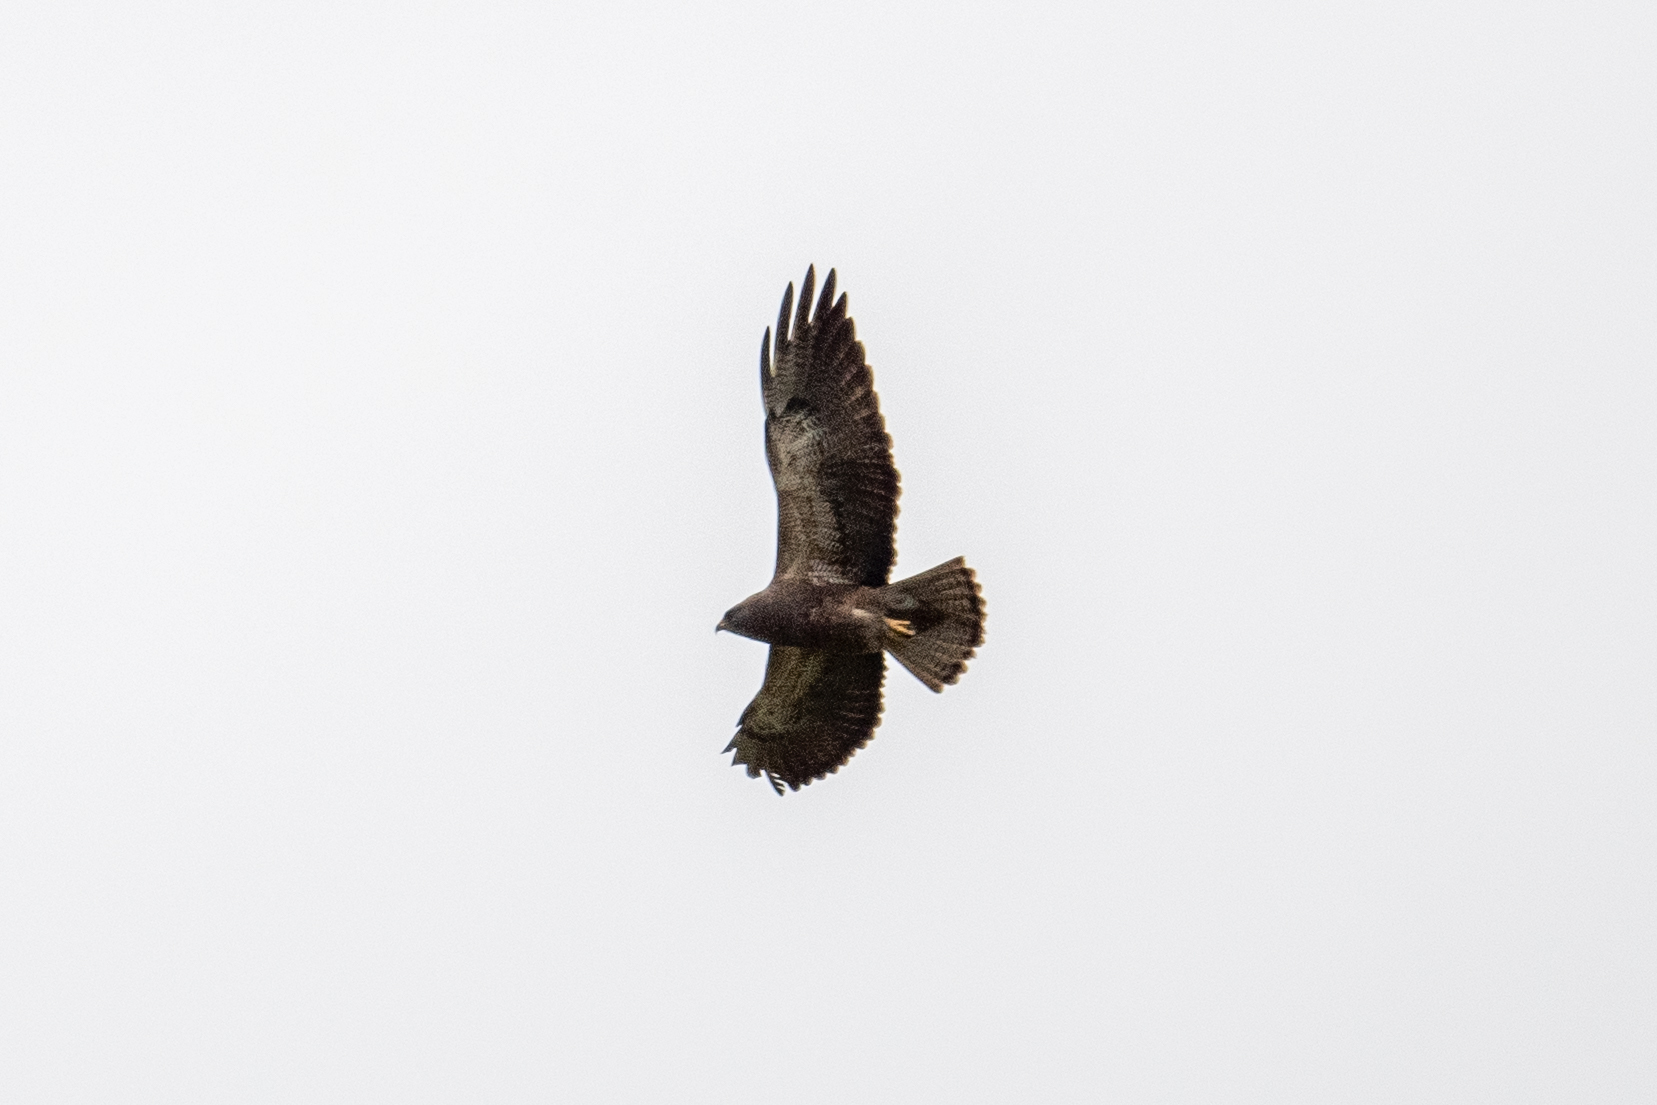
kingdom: Animalia
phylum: Chordata
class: Aves
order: Accipitriformes
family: Accipitridae
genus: Buteo
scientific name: Buteo swainsoni
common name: Swainson's hawk
